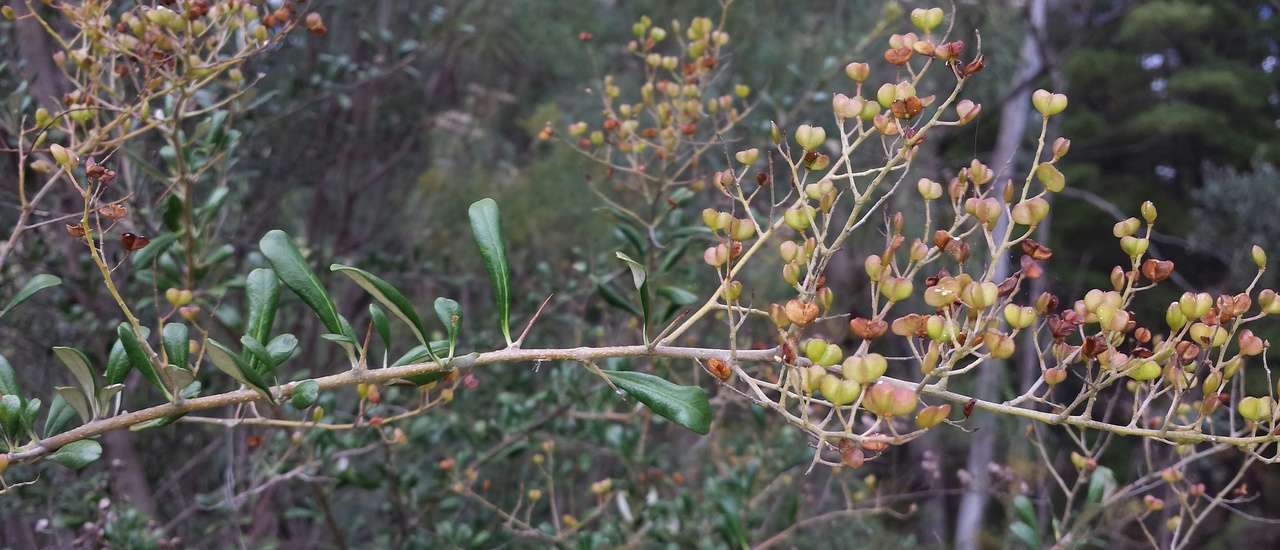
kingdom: Plantae
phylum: Tracheophyta
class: Magnoliopsida
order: Apiales
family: Pittosporaceae
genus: Bursaria
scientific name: Bursaria spinosa
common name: Australian blackthorn
